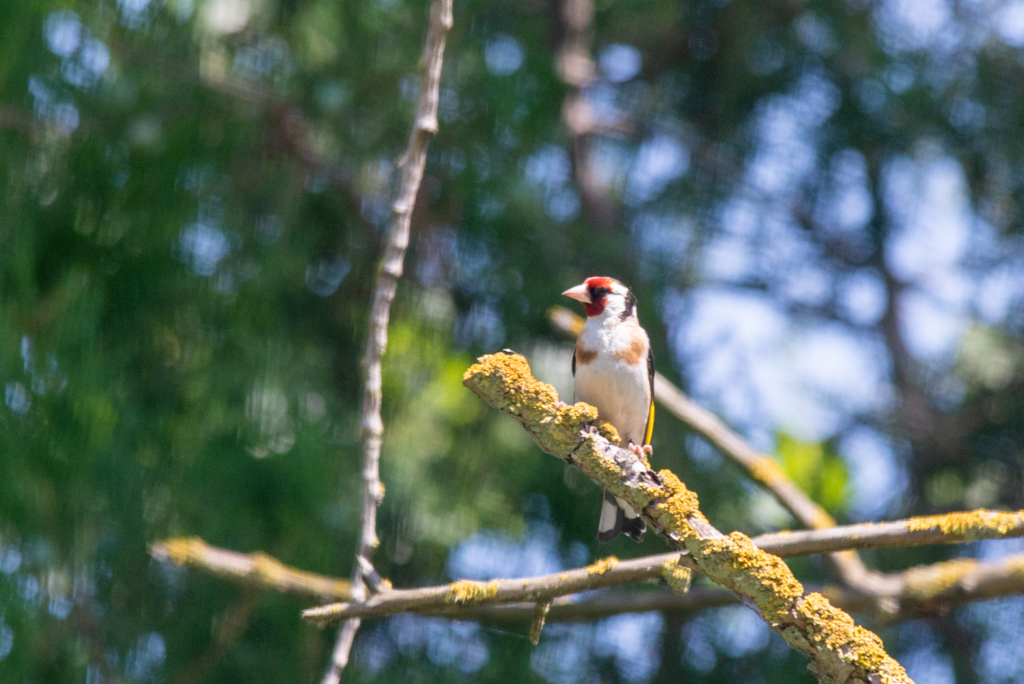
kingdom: Animalia
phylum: Chordata
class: Aves
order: Passeriformes
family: Fringillidae
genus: Carduelis
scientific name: Carduelis carduelis
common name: European goldfinch
